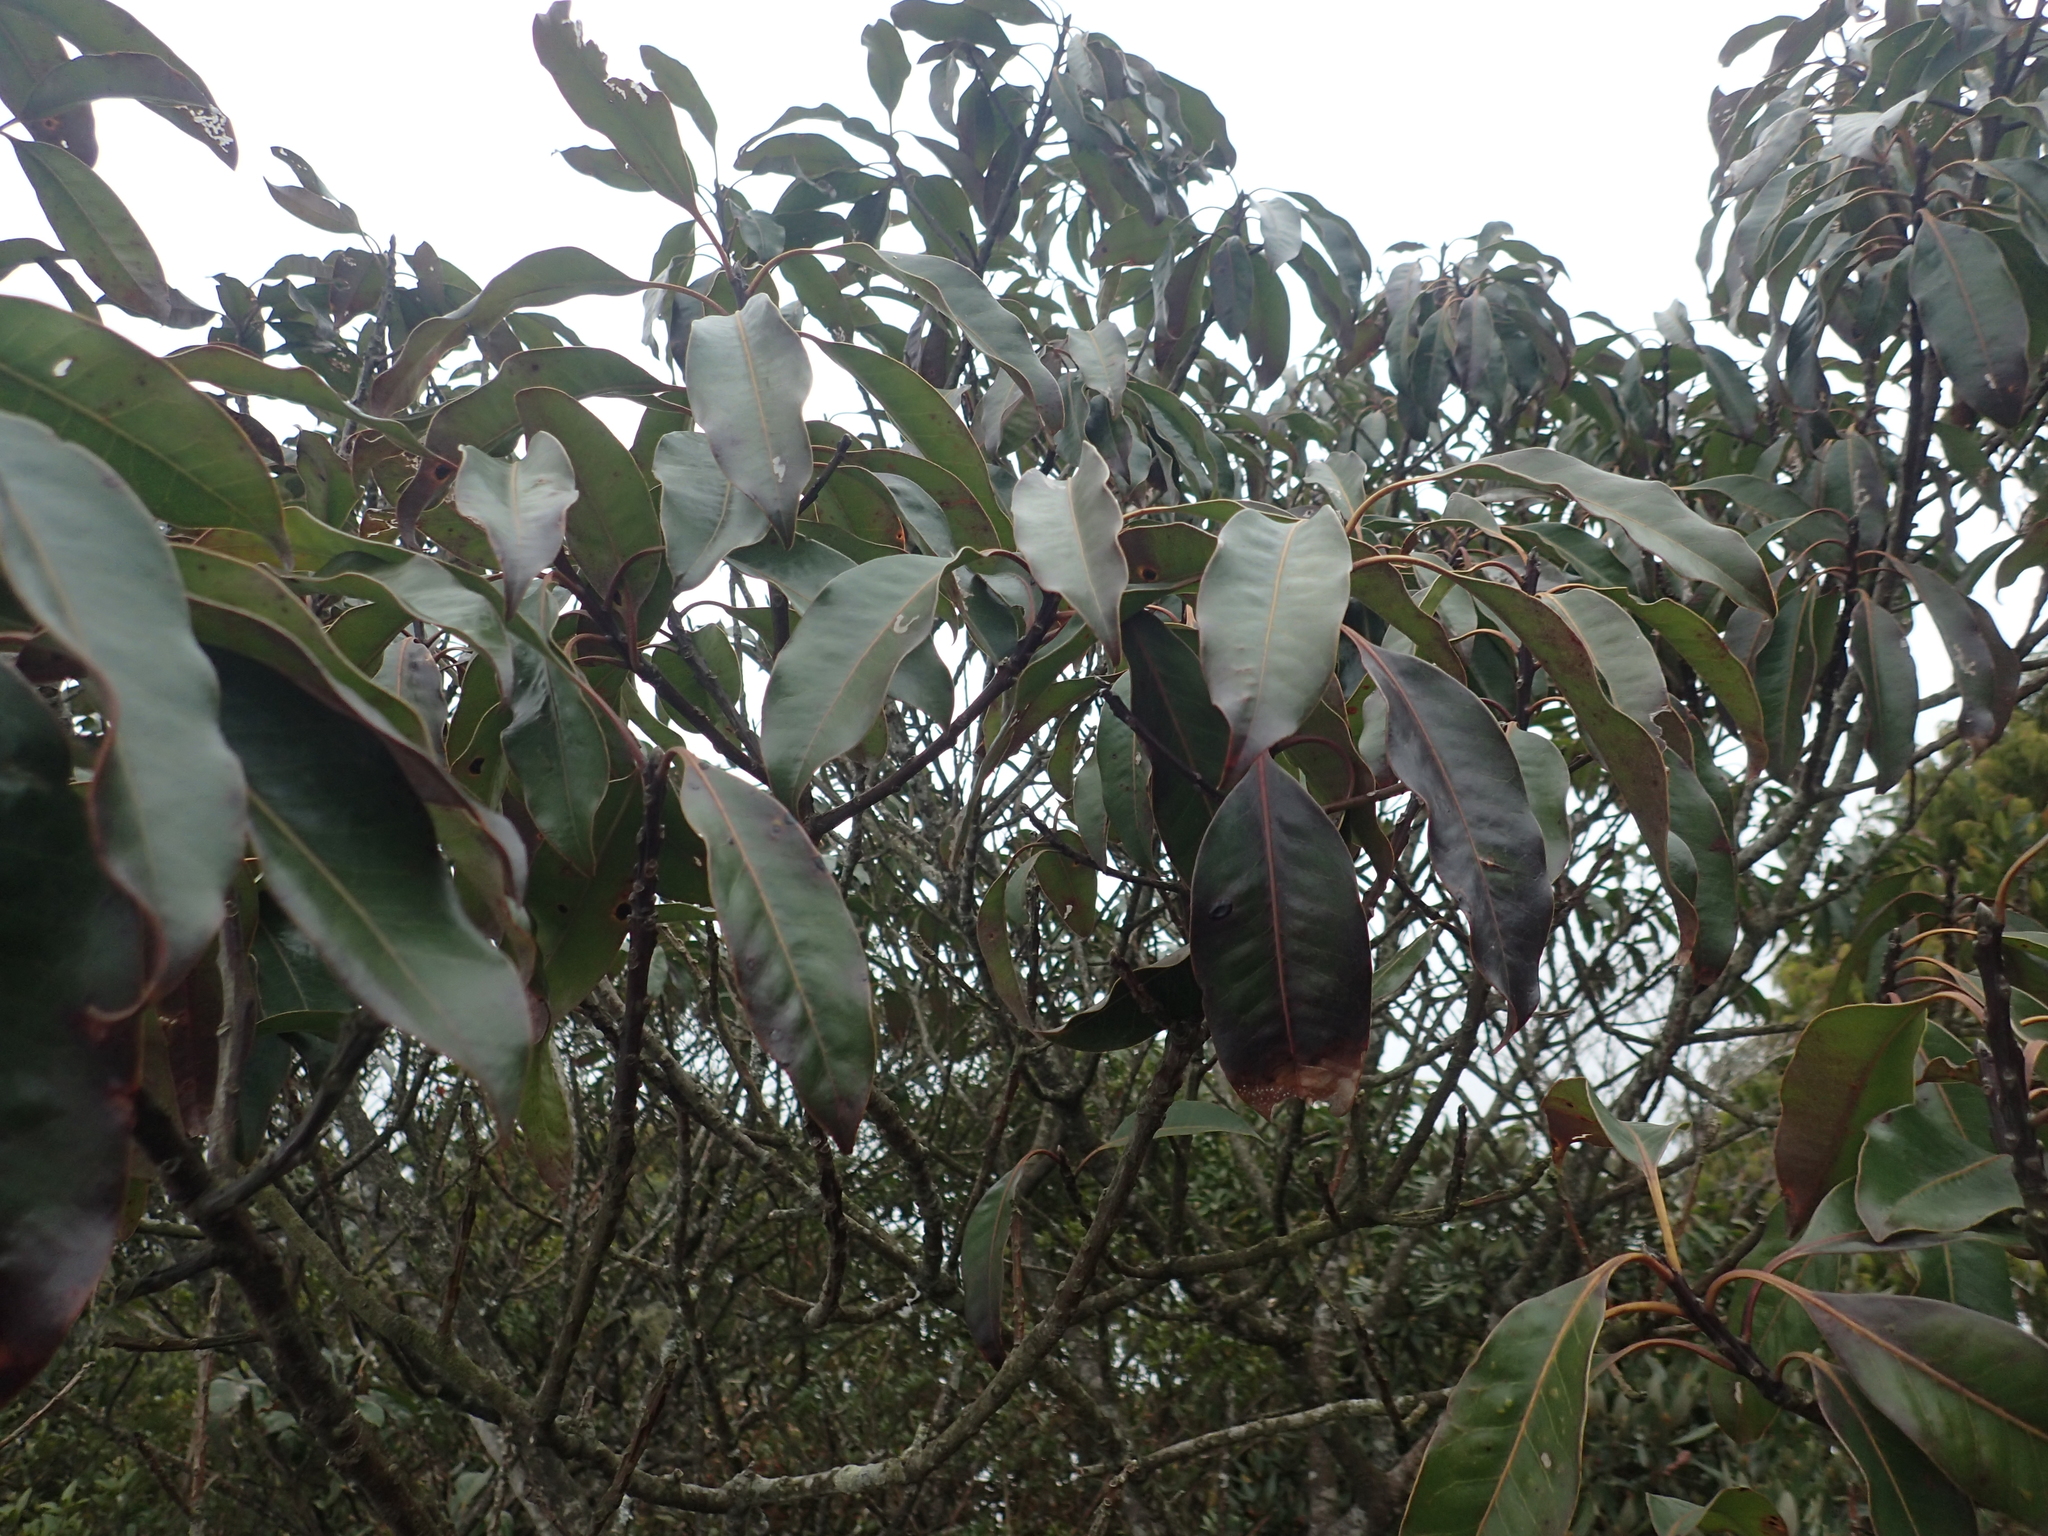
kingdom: Plantae
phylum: Tracheophyta
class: Magnoliopsida
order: Aquifoliales
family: Aquifoliaceae
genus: Ilex
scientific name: Ilex tugitakayamensis
